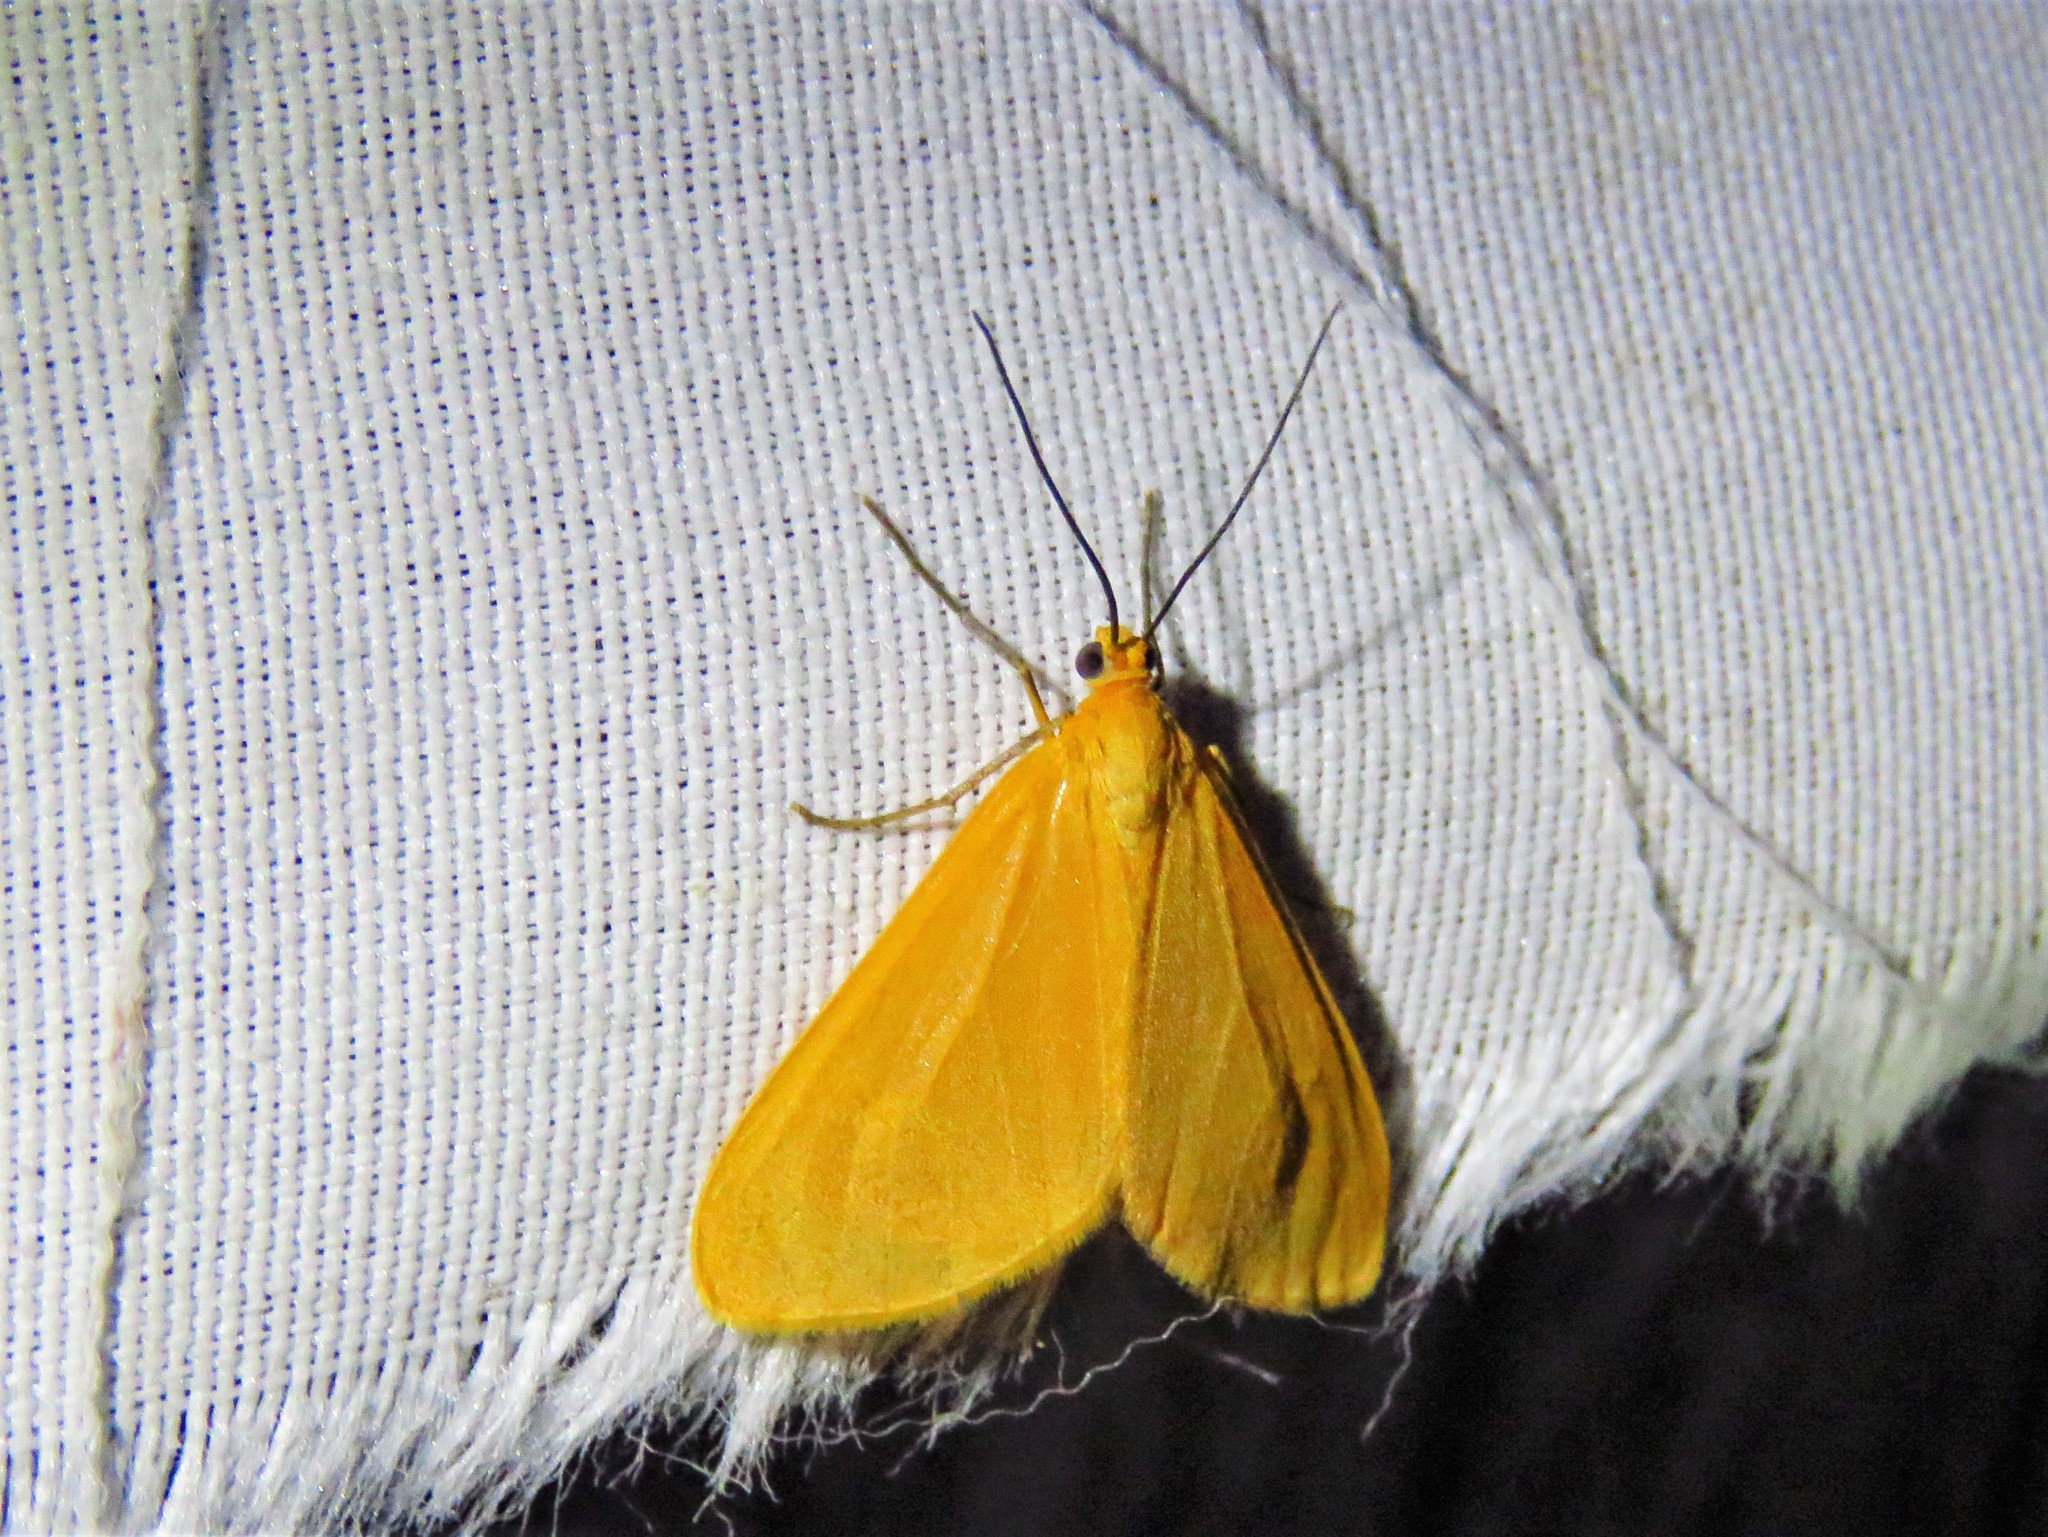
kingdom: Animalia
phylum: Arthropoda
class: Insecta
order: Lepidoptera
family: Geometridae
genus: Eubaphe
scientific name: Eubaphe unicolor
